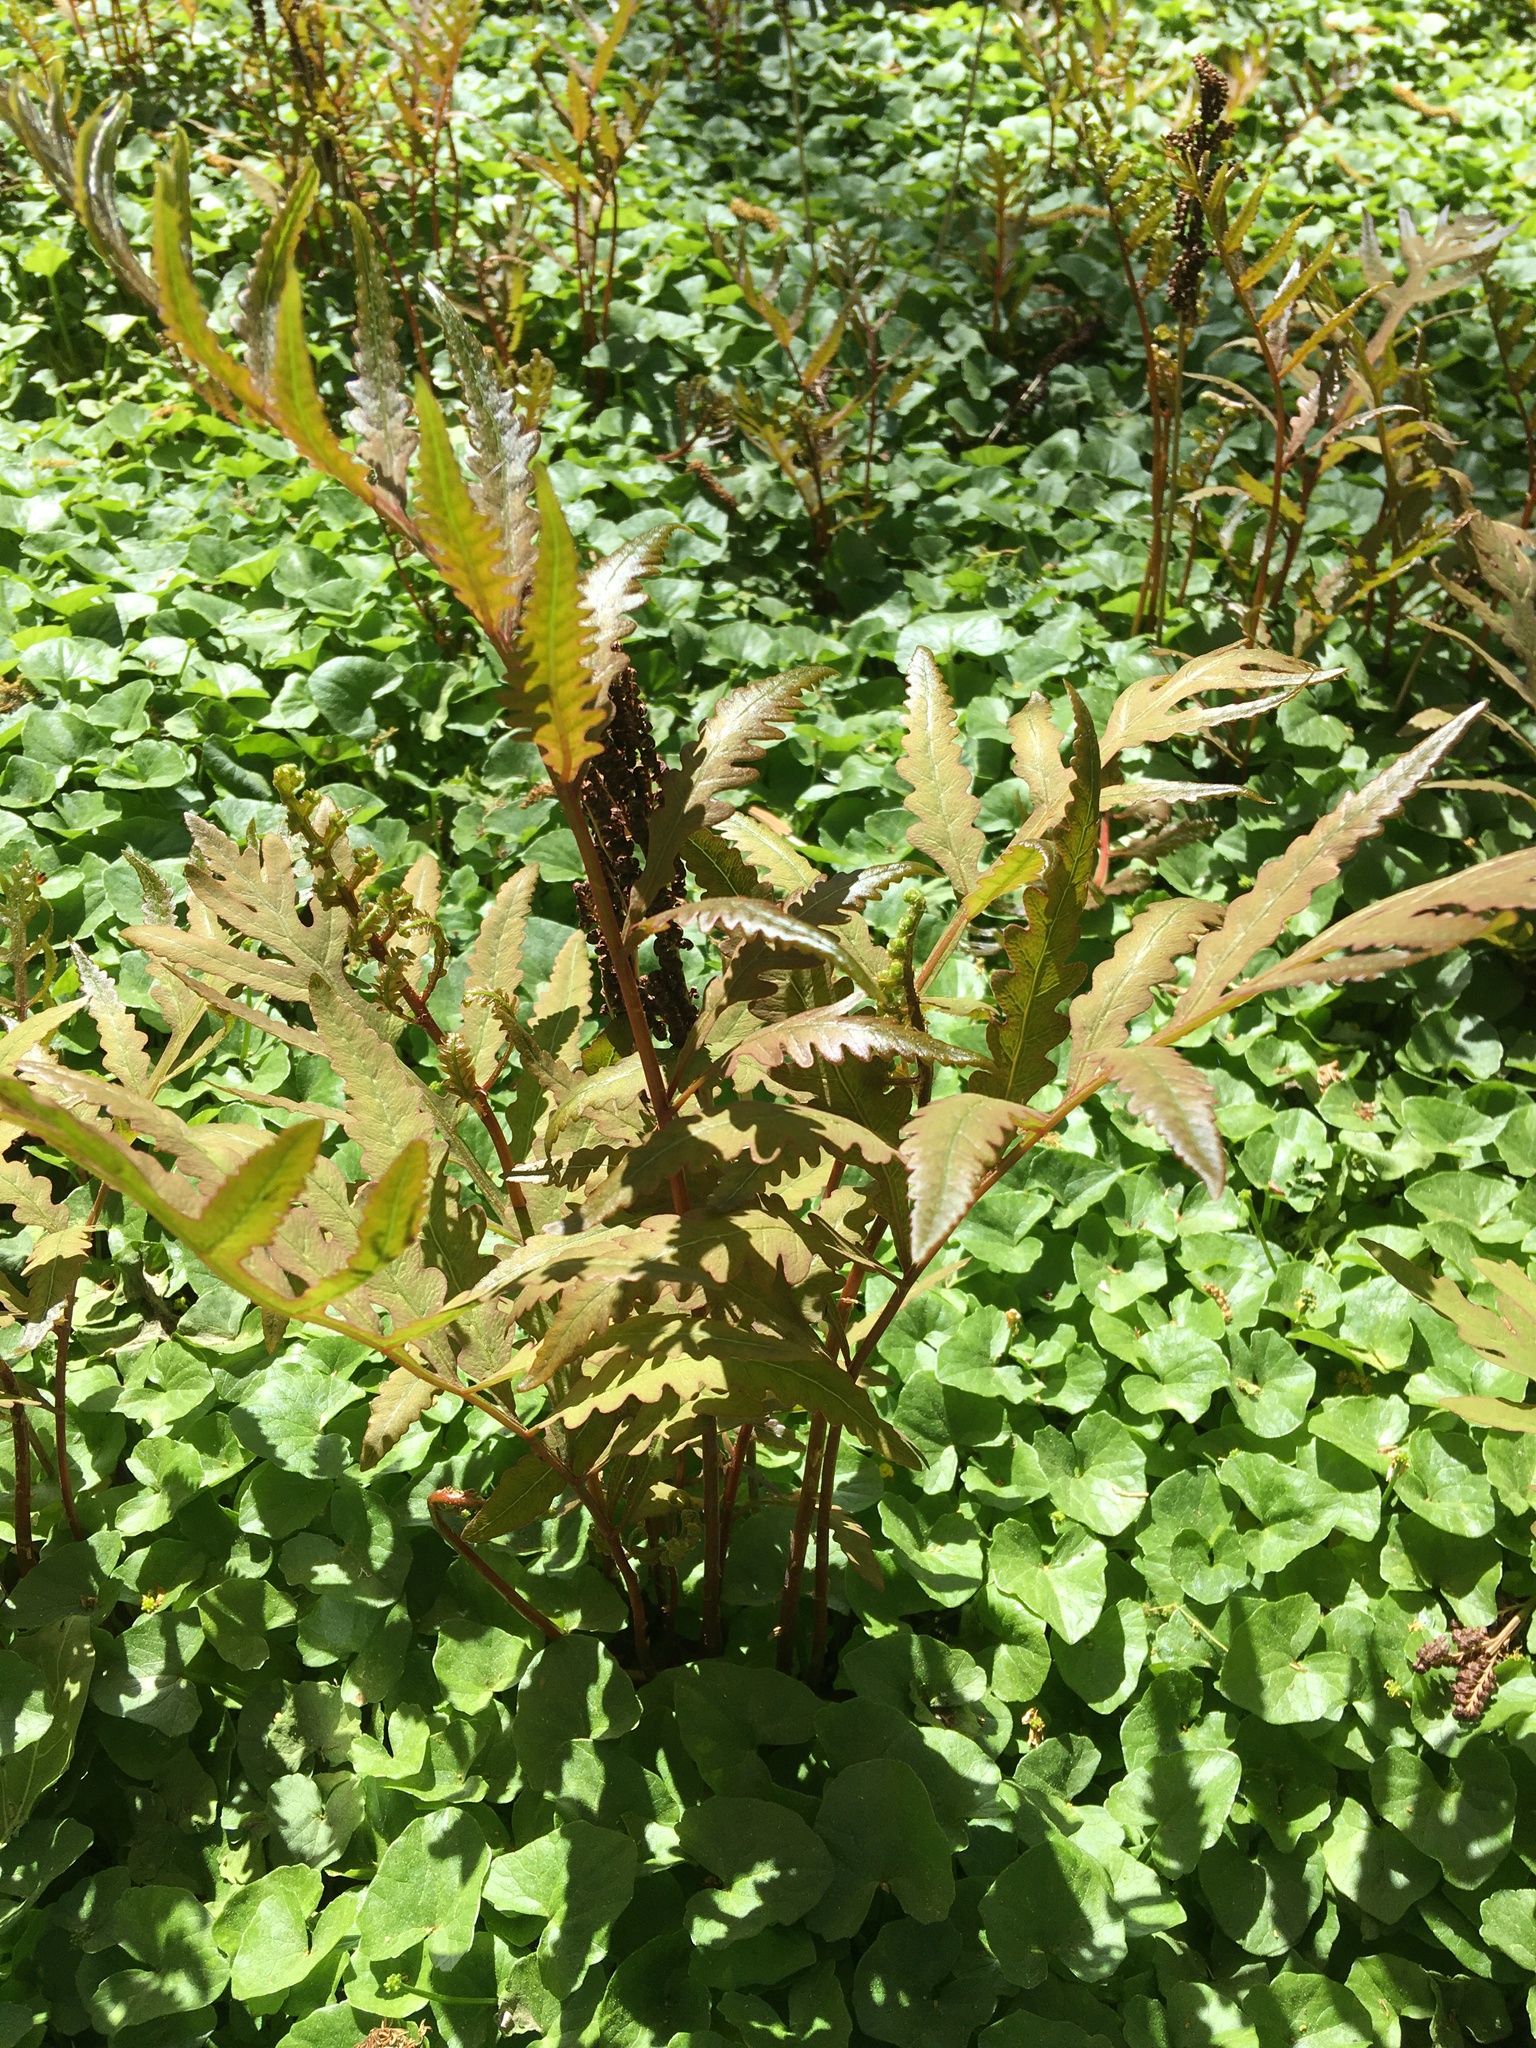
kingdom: Plantae
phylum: Tracheophyta
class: Polypodiopsida
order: Polypodiales
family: Onocleaceae
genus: Onoclea
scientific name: Onoclea sensibilis
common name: Sensitive fern
